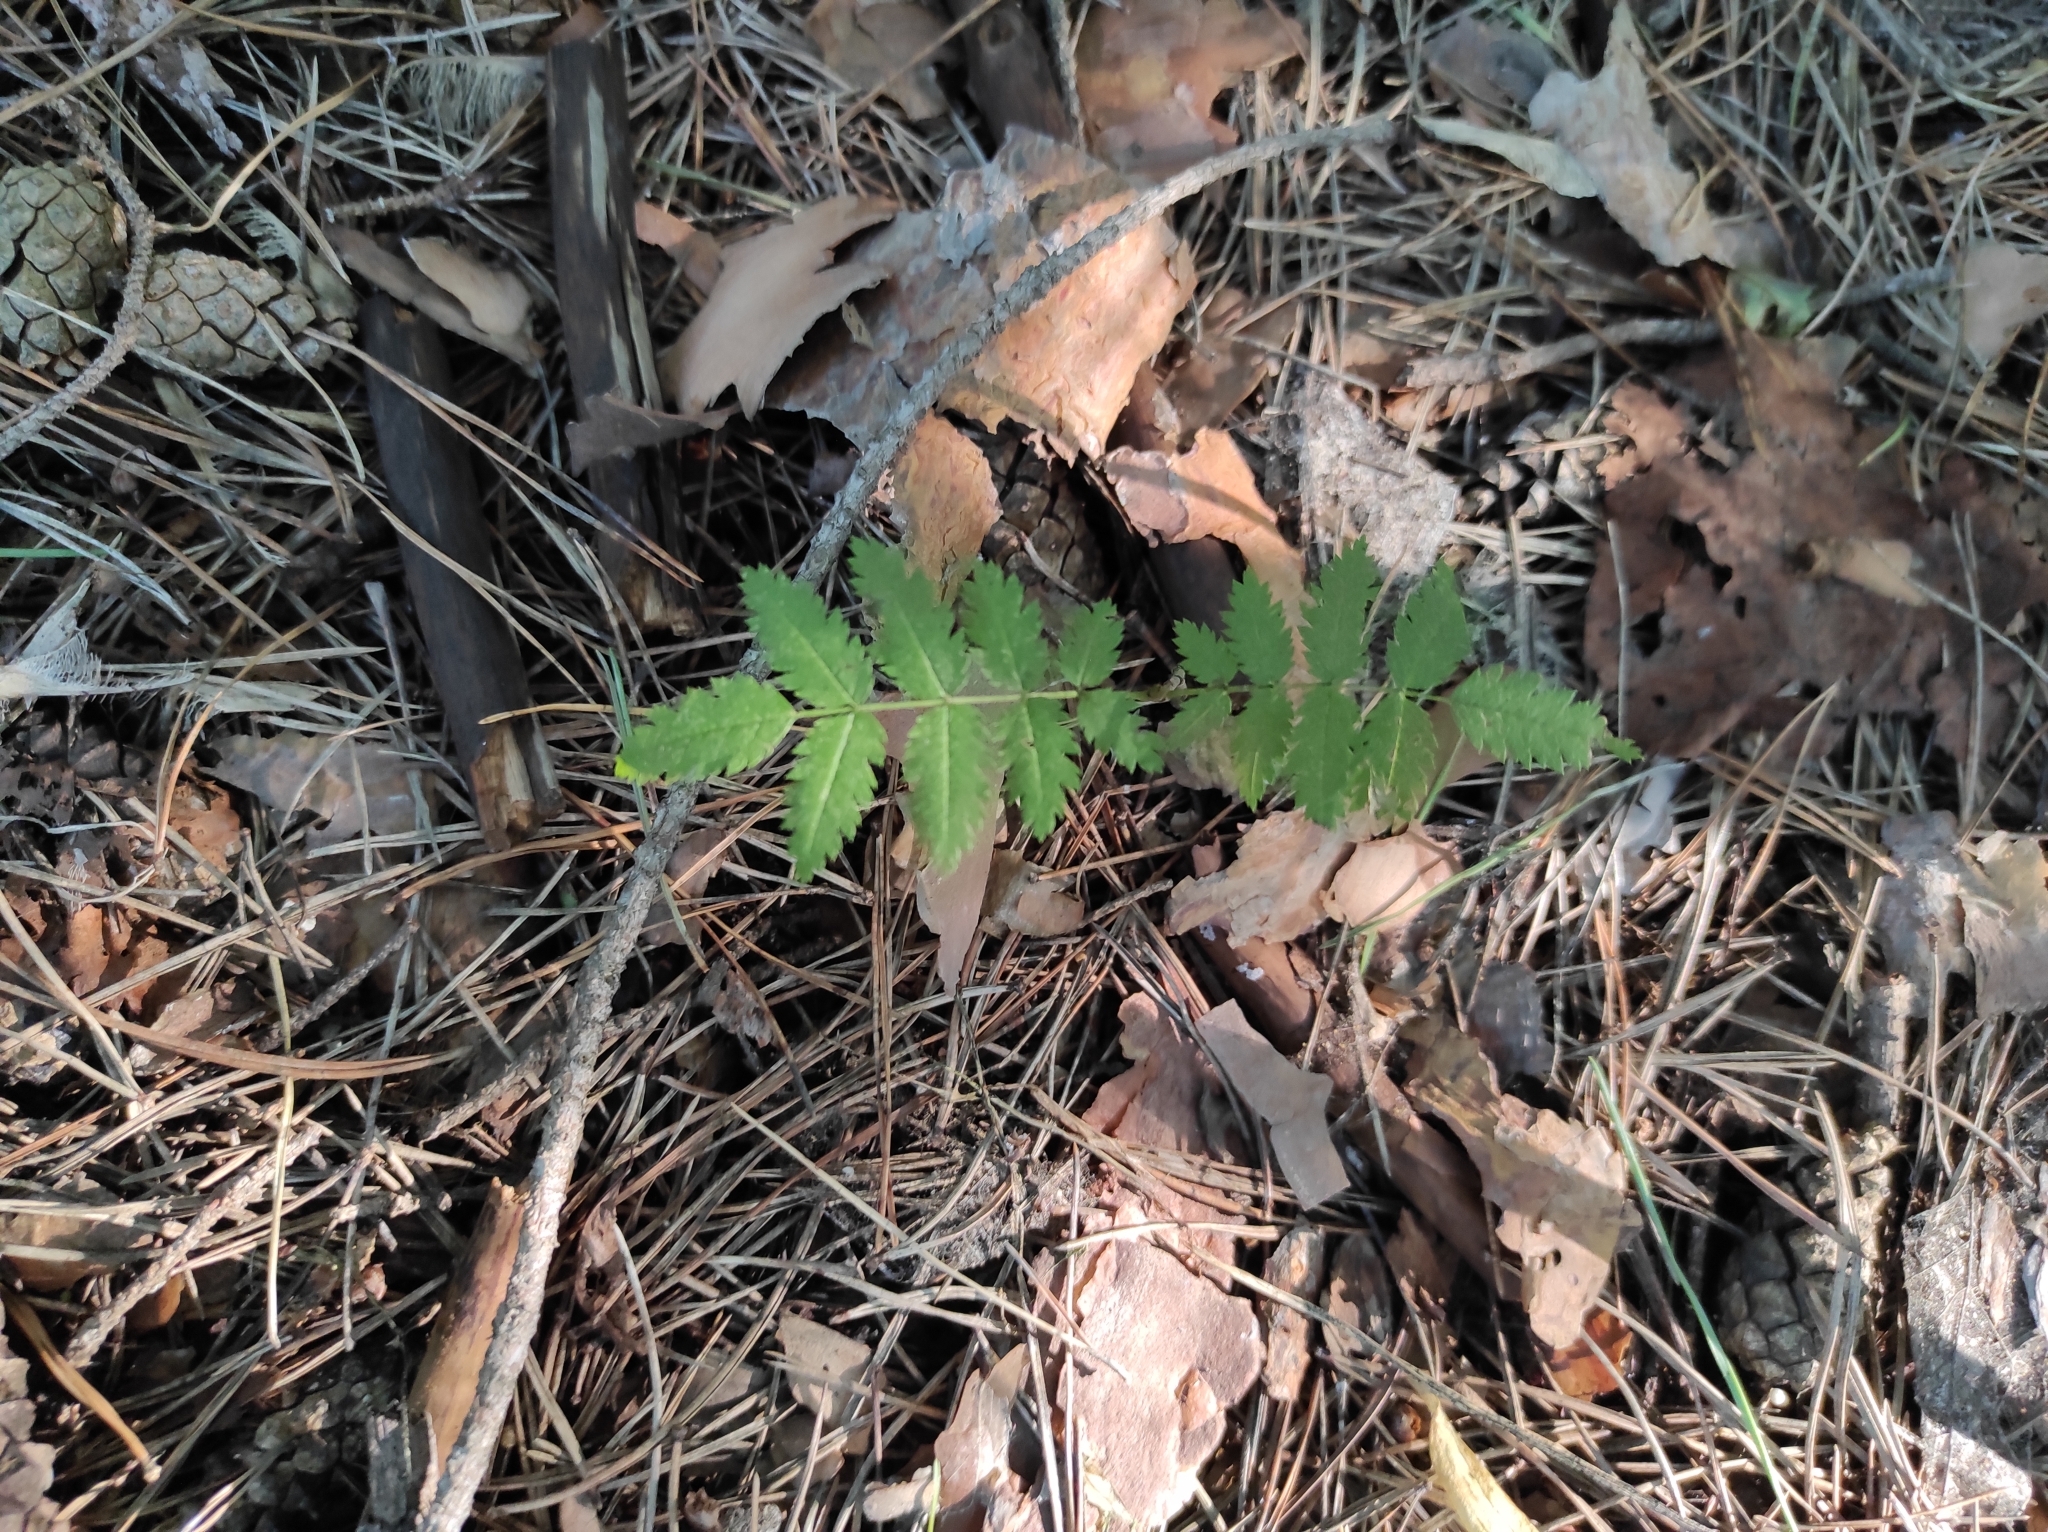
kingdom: Plantae
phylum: Tracheophyta
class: Magnoliopsida
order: Rosales
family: Rosaceae
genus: Sorbus
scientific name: Sorbus aucuparia
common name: Rowan
